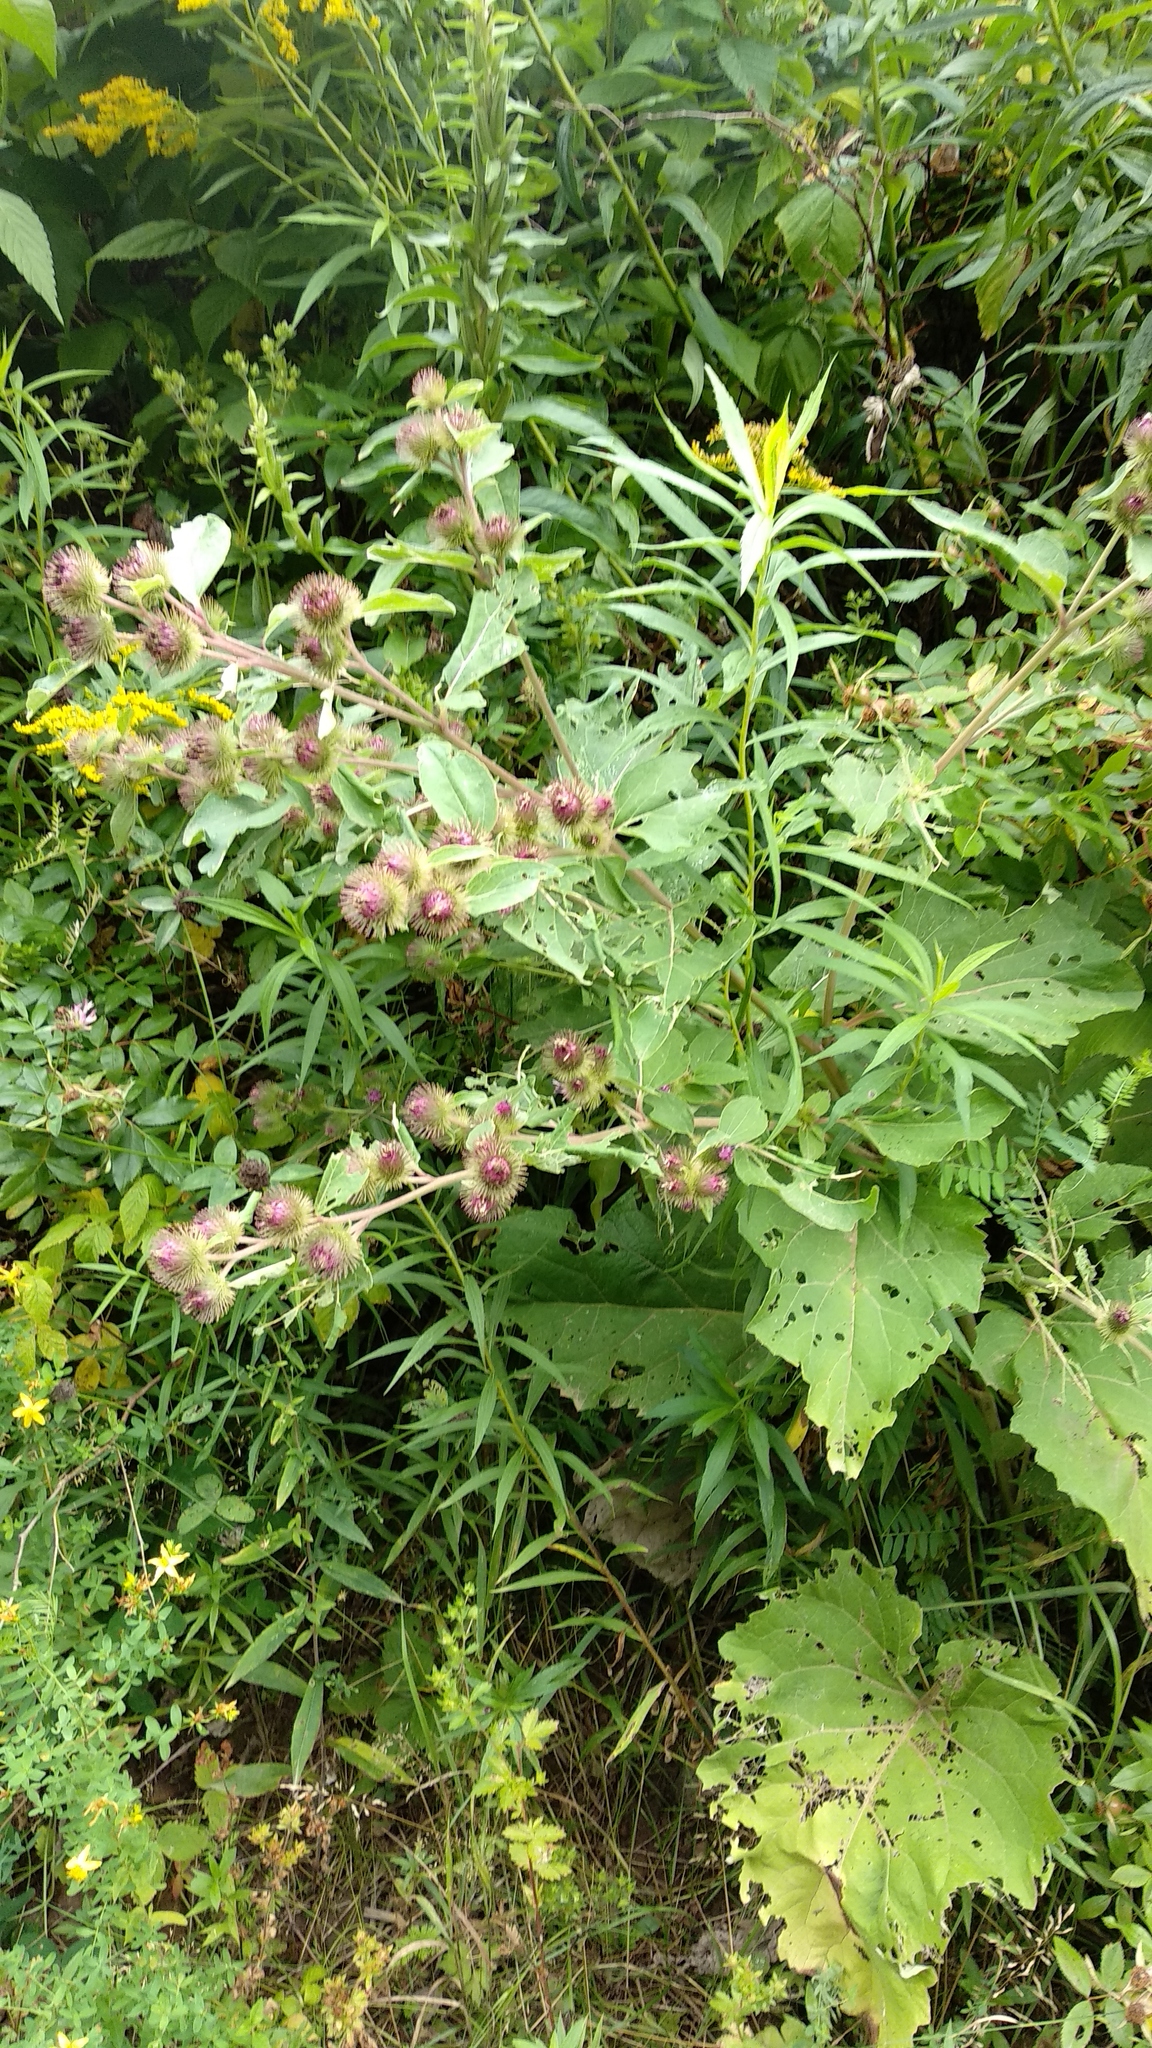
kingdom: Plantae
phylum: Tracheophyta
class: Magnoliopsida
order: Asterales
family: Asteraceae
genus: Arctium
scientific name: Arctium minus
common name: Lesser burdock
